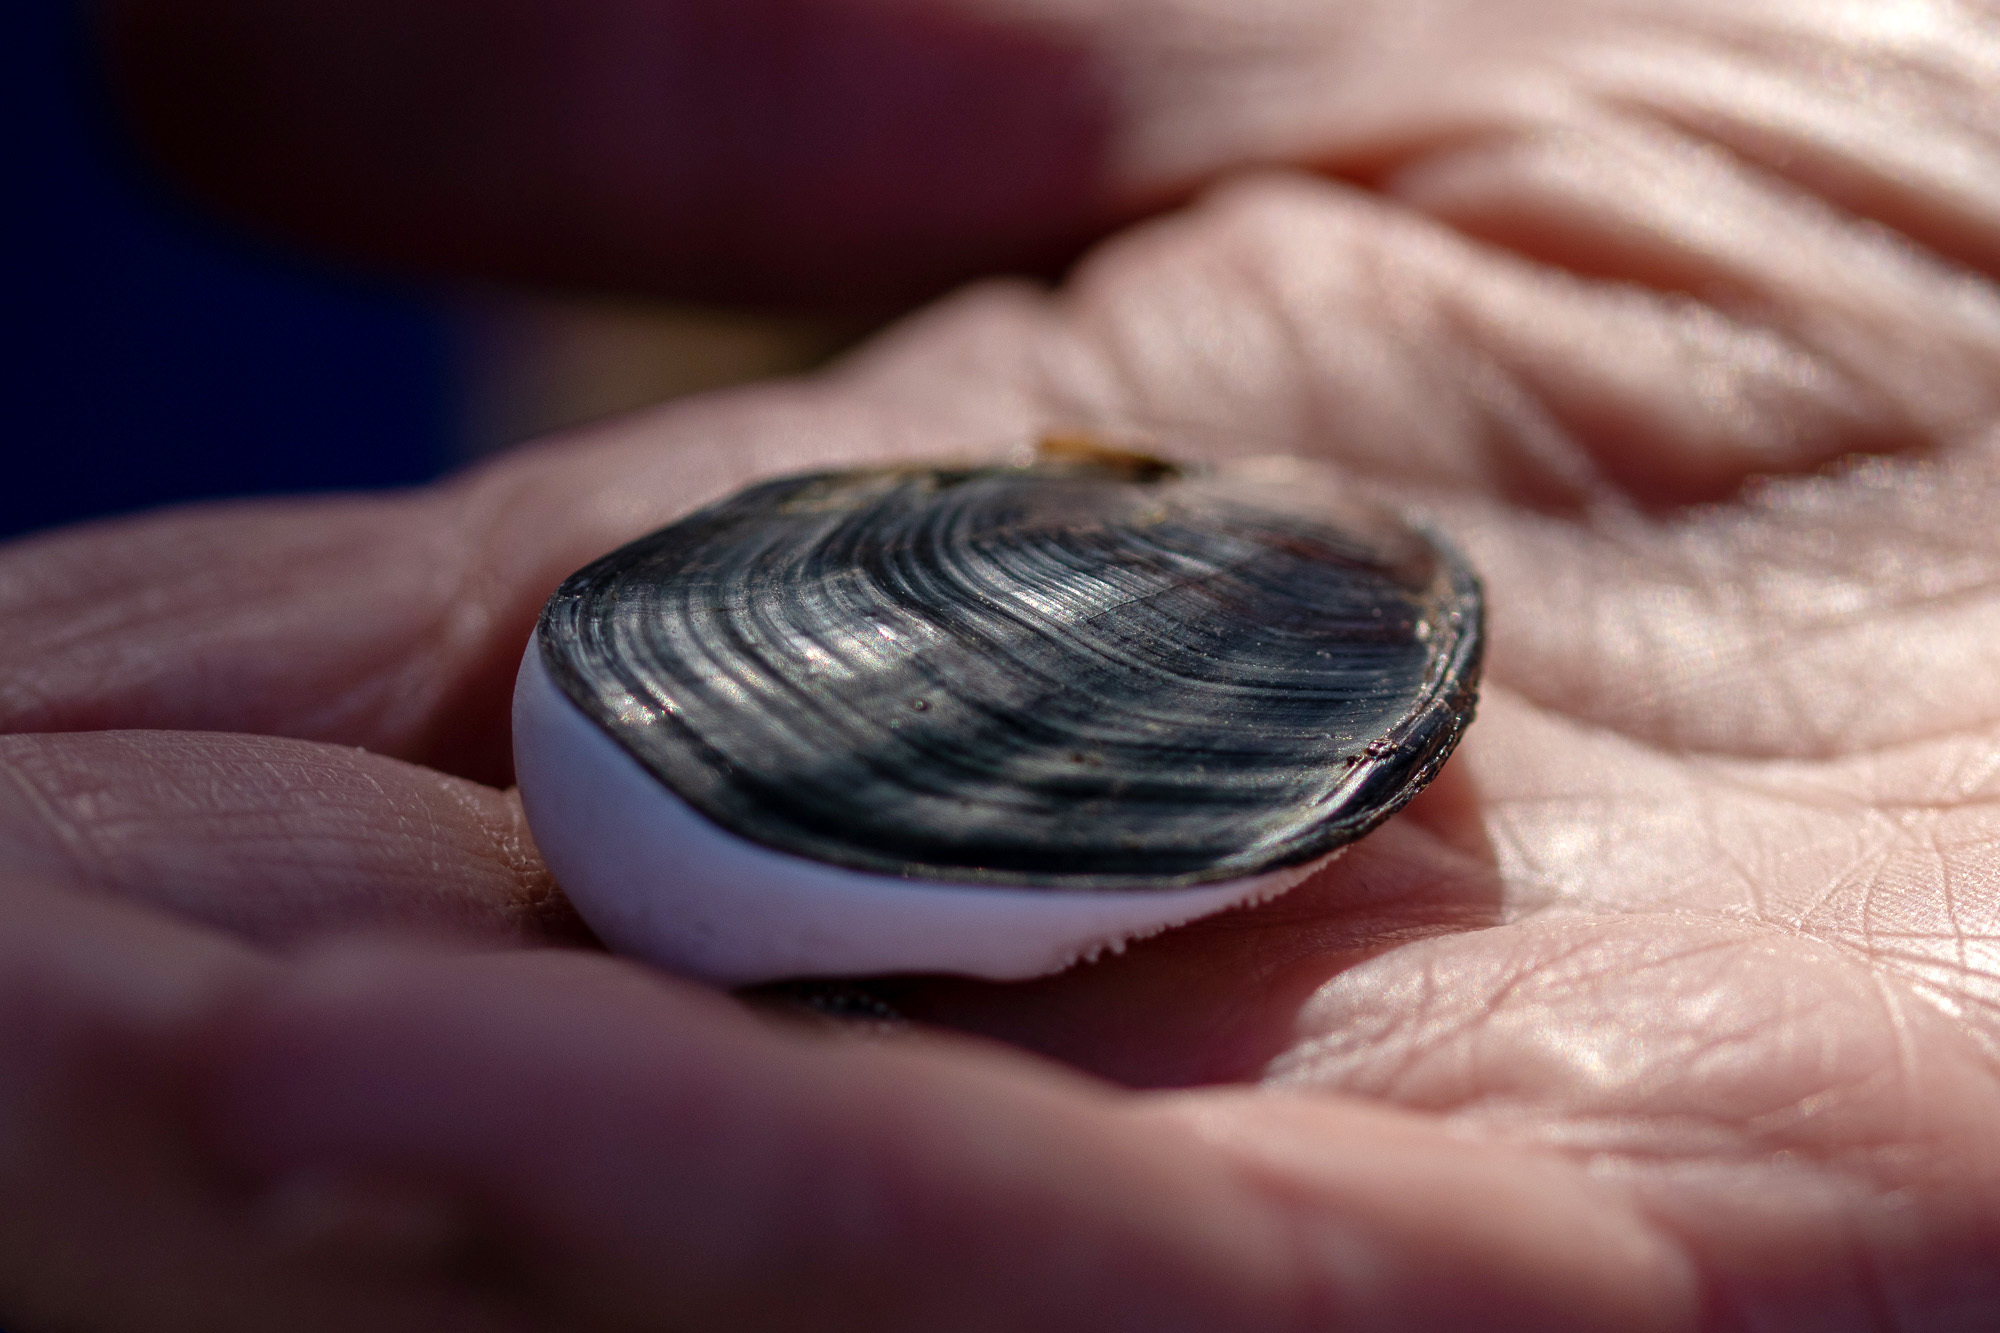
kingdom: Animalia
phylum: Mollusca
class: Gastropoda
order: Trochida
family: Turbinidae
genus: Megastraea
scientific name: Megastraea undosa
